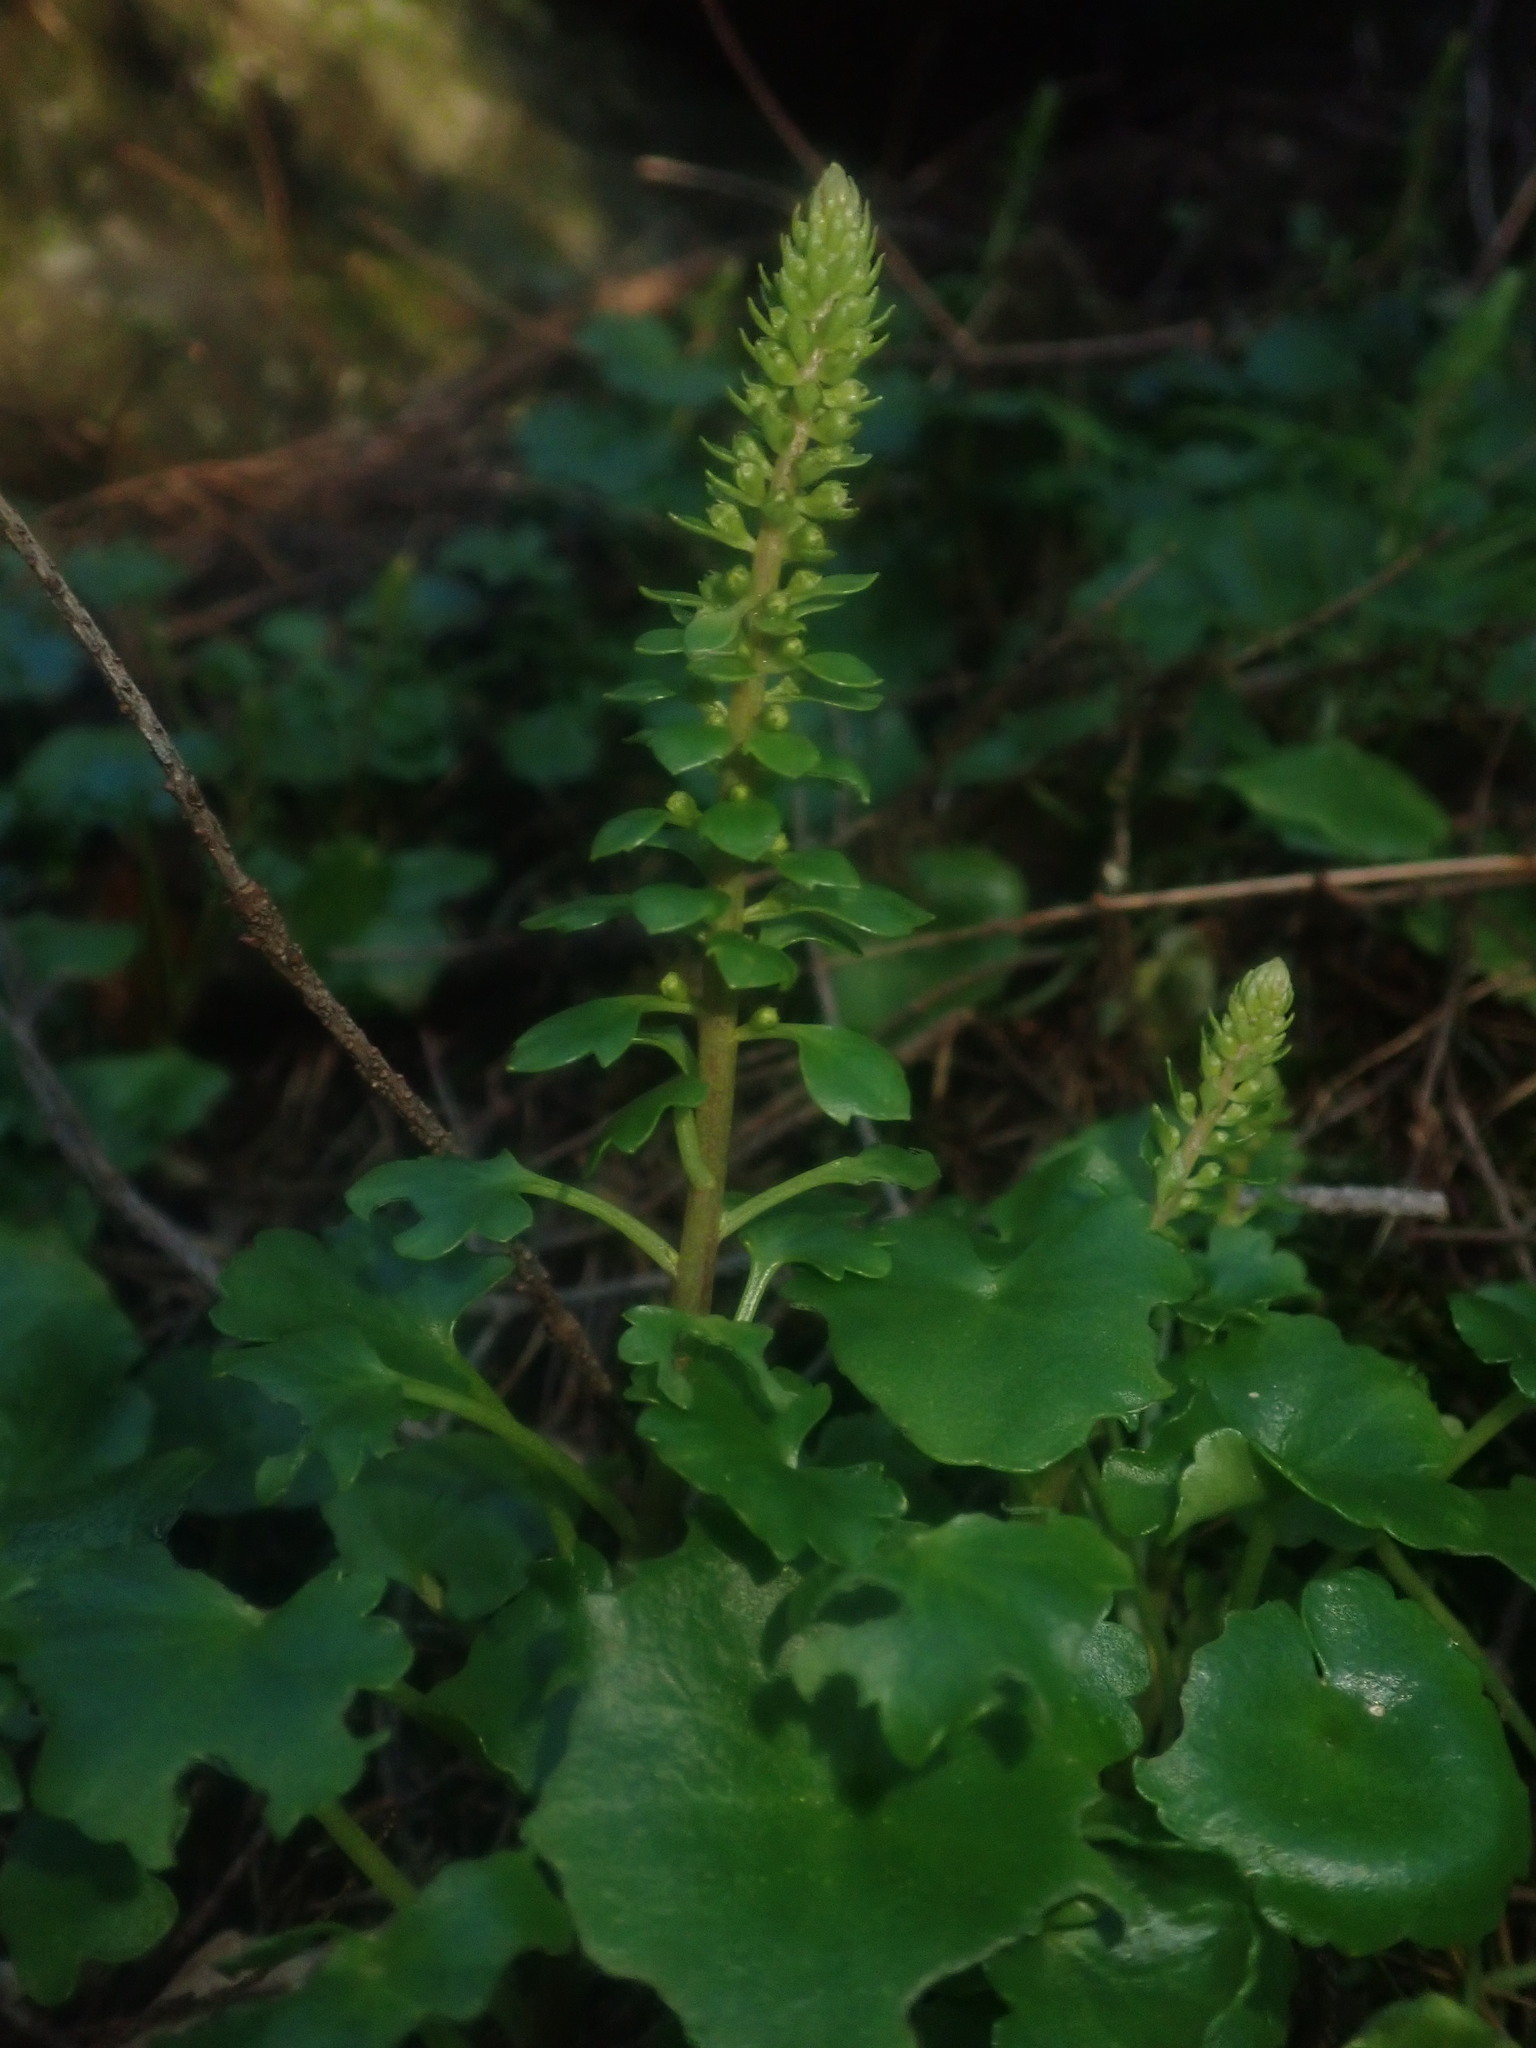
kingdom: Plantae
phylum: Tracheophyta
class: Magnoliopsida
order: Saxifragales
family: Crassulaceae
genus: Umbilicus
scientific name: Umbilicus rupestris
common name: Navelwort
